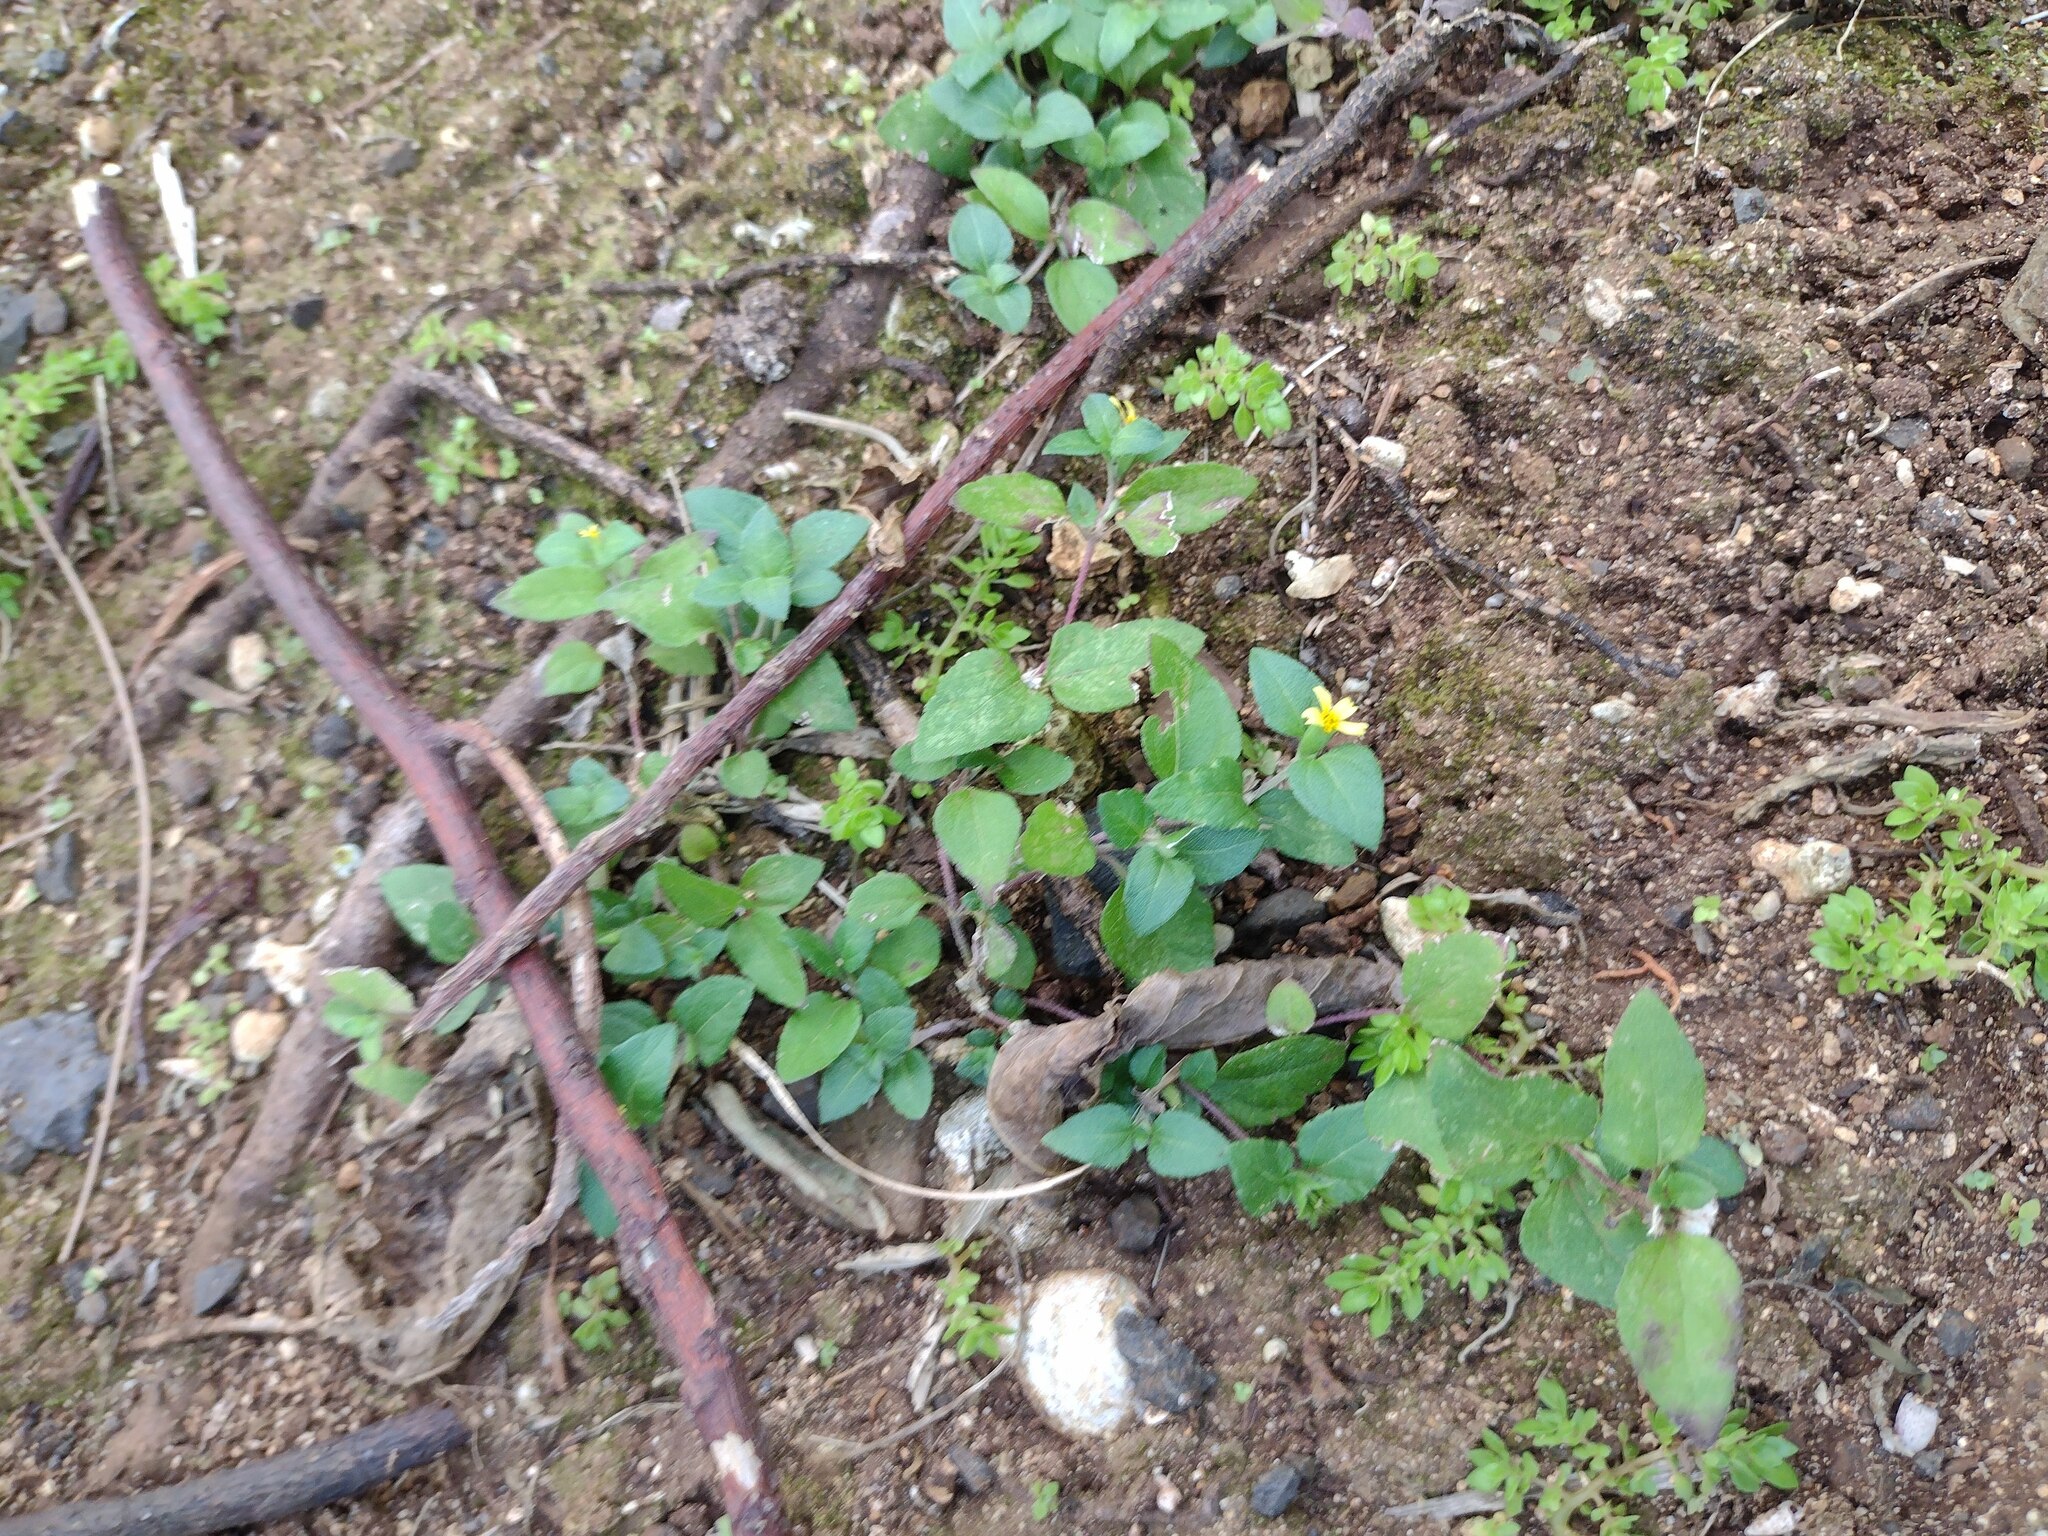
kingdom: Plantae
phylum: Tracheophyta
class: Magnoliopsida
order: Asterales
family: Asteraceae
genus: Calyptocarpus
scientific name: Calyptocarpus vialis
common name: Straggler daisy
